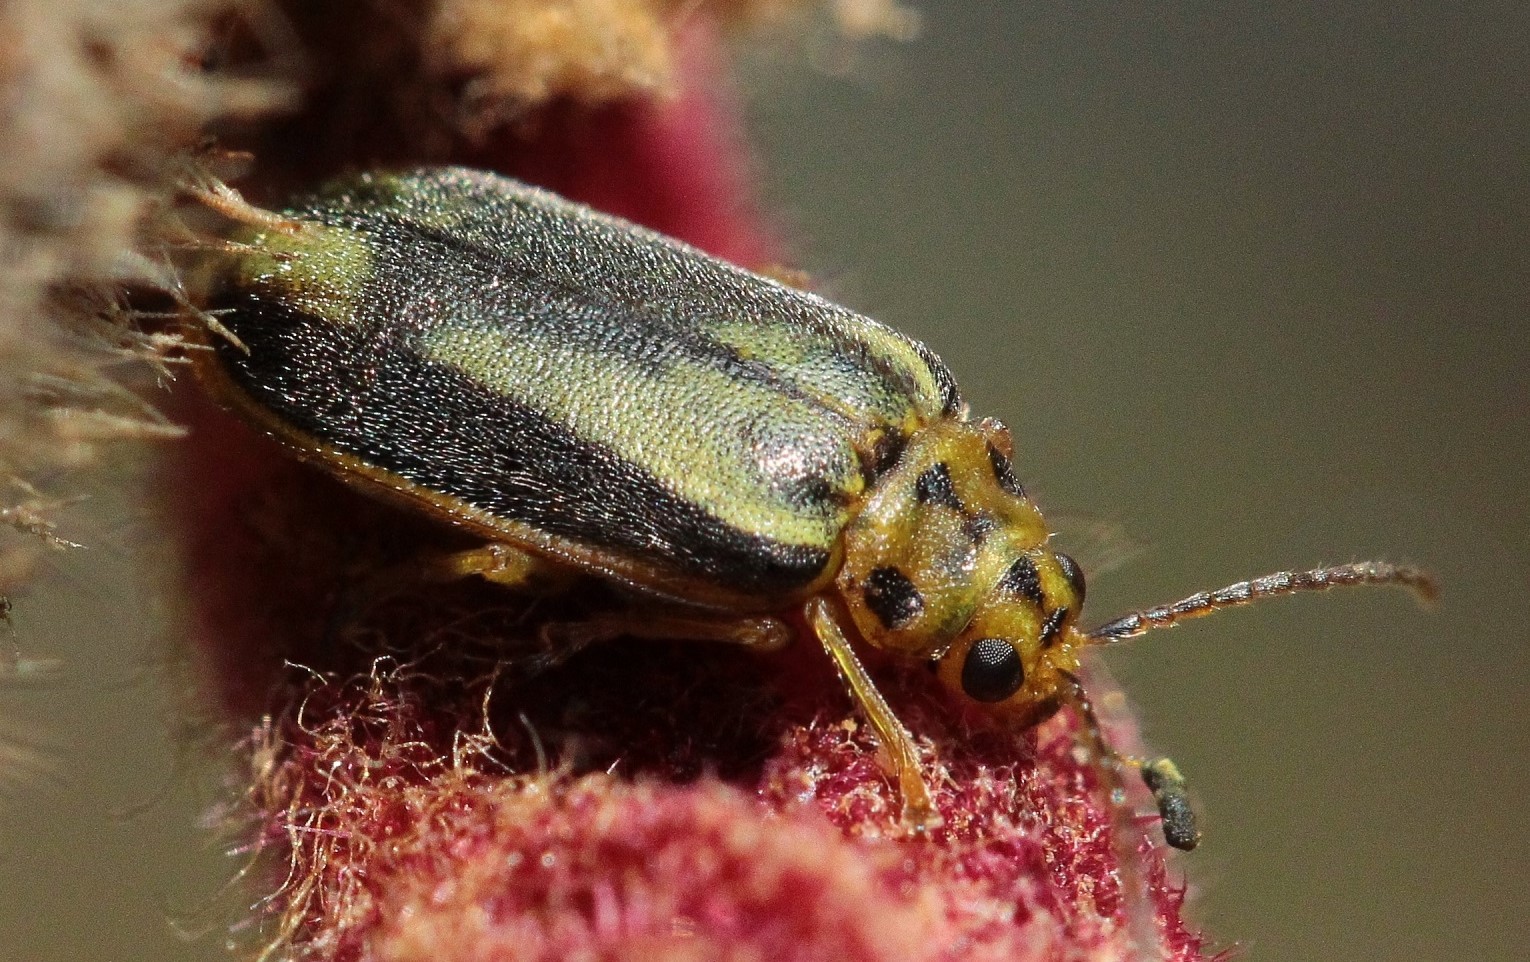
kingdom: Animalia
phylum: Arthropoda
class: Insecta
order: Coleoptera
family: Chrysomelidae
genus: Xanthogaleruca
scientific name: Xanthogaleruca luteola
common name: Elm leaf beetle
